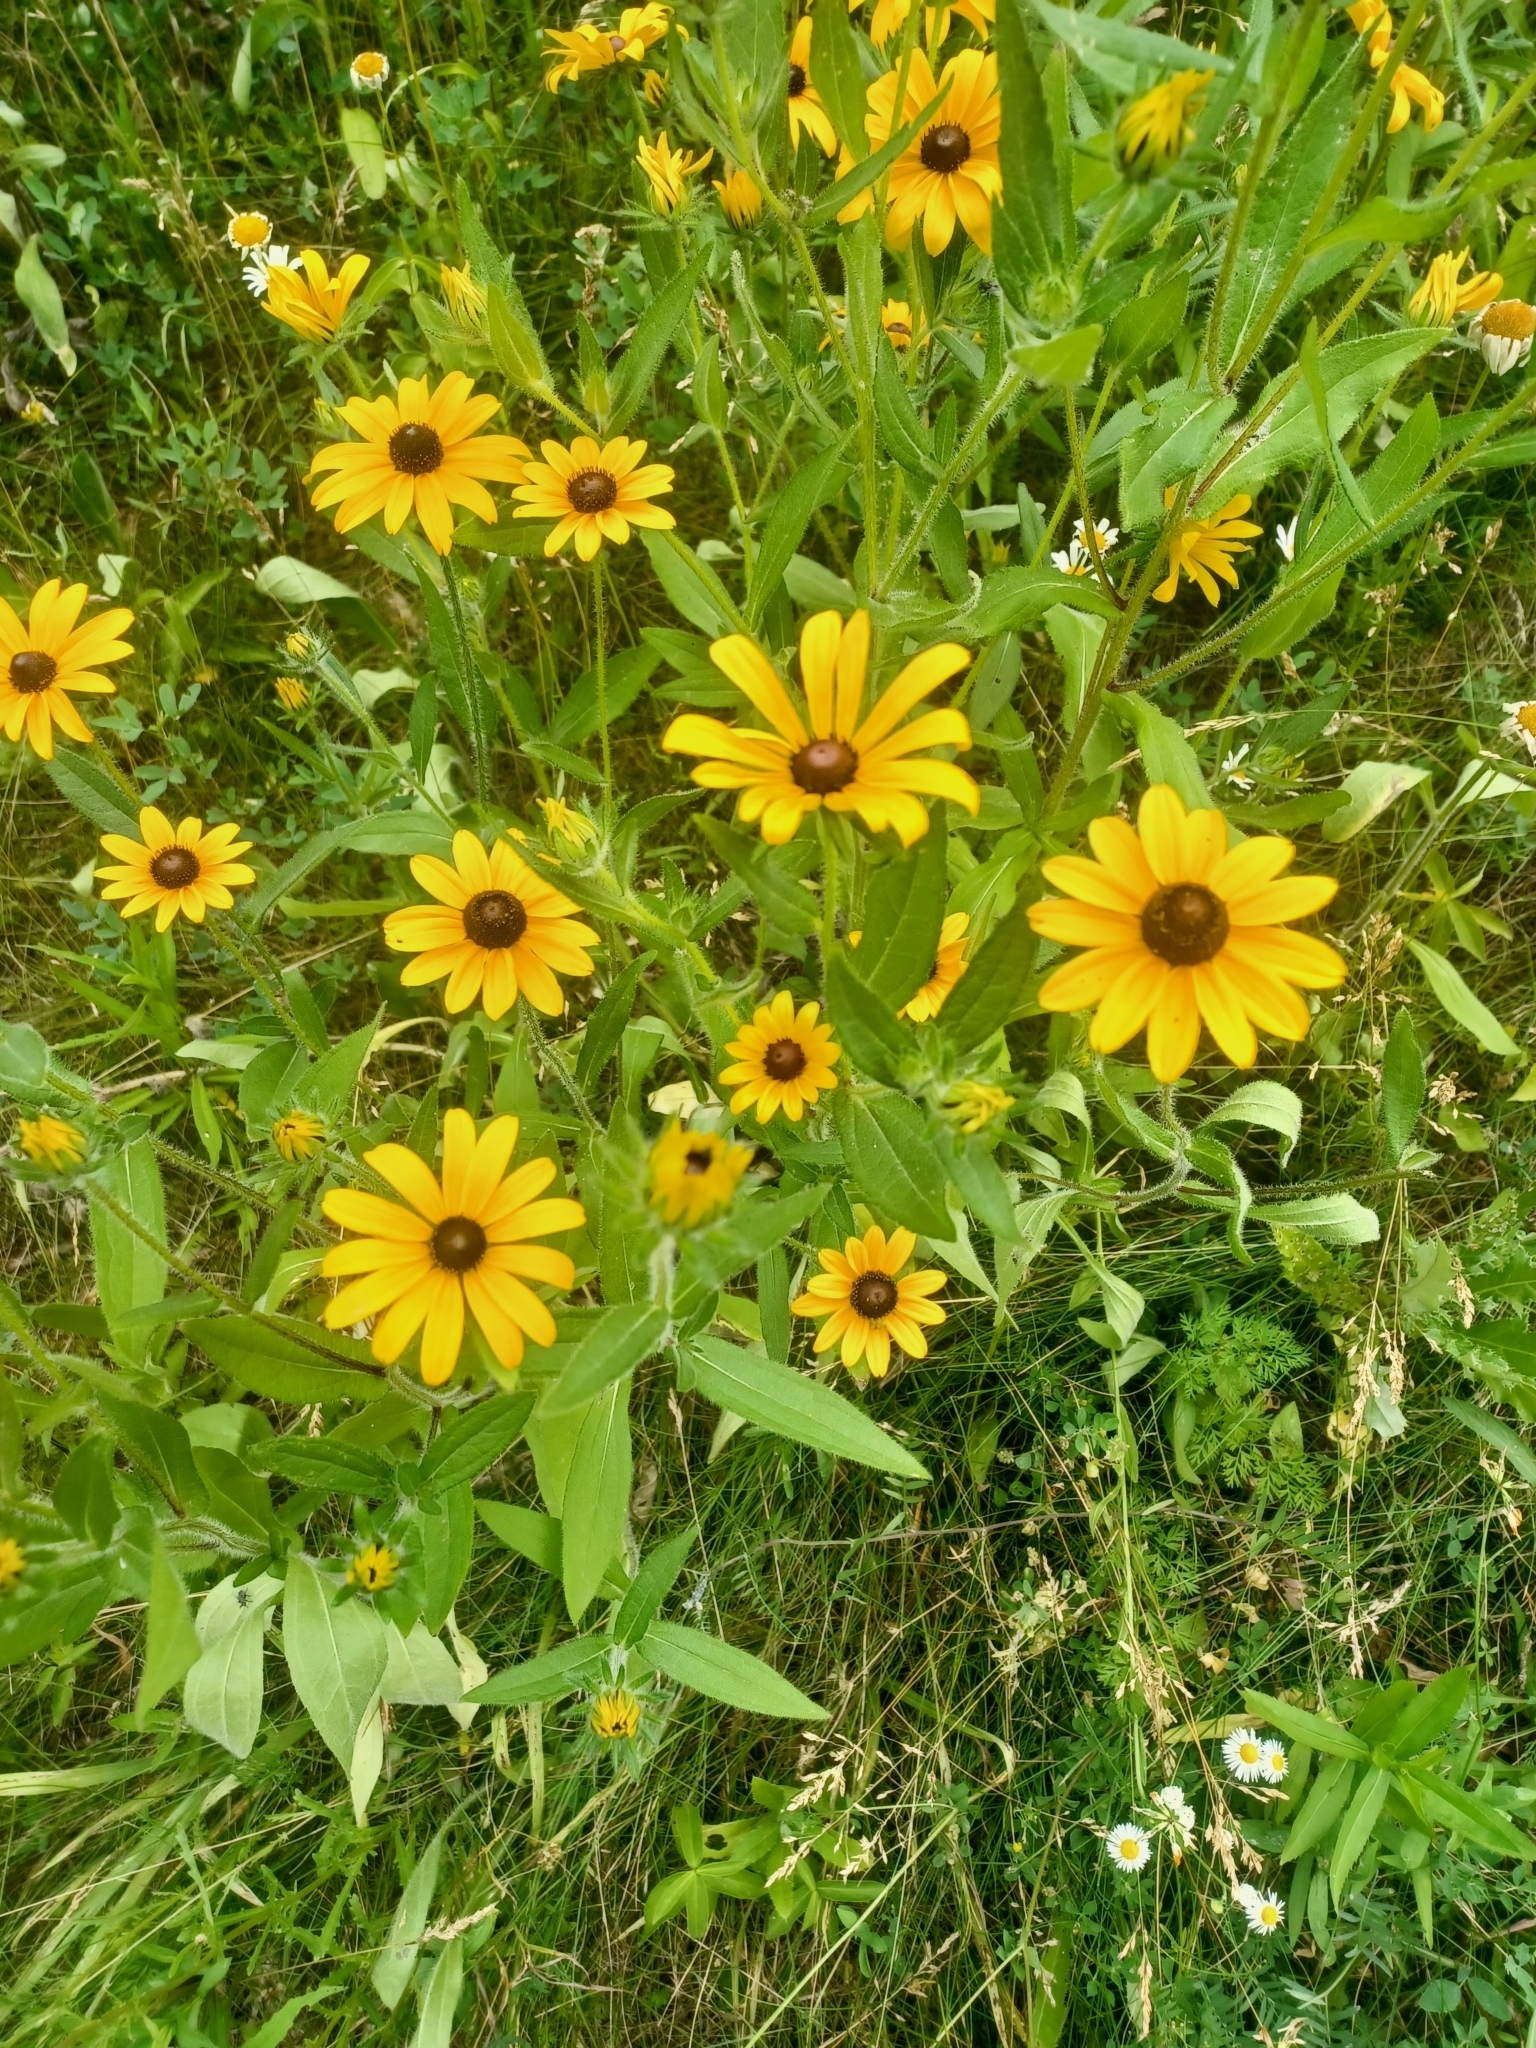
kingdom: Plantae
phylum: Tracheophyta
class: Magnoliopsida
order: Asterales
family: Asteraceae
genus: Rudbeckia
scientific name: Rudbeckia hirta
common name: Black-eyed-susan
